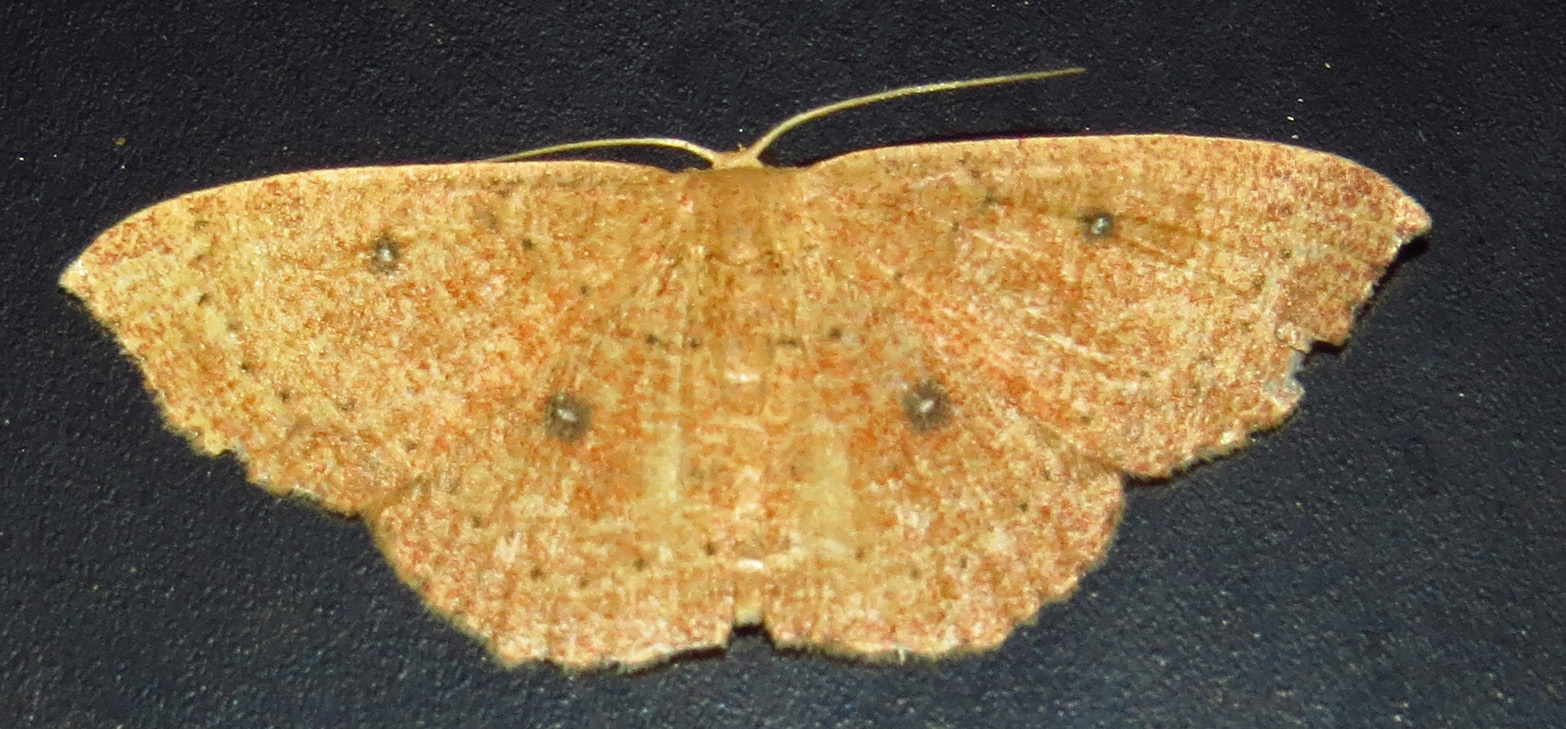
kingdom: Animalia
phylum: Arthropoda
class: Insecta
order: Lepidoptera
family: Geometridae
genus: Cyclophora
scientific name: Cyclophora packardi
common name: Packard's wave
